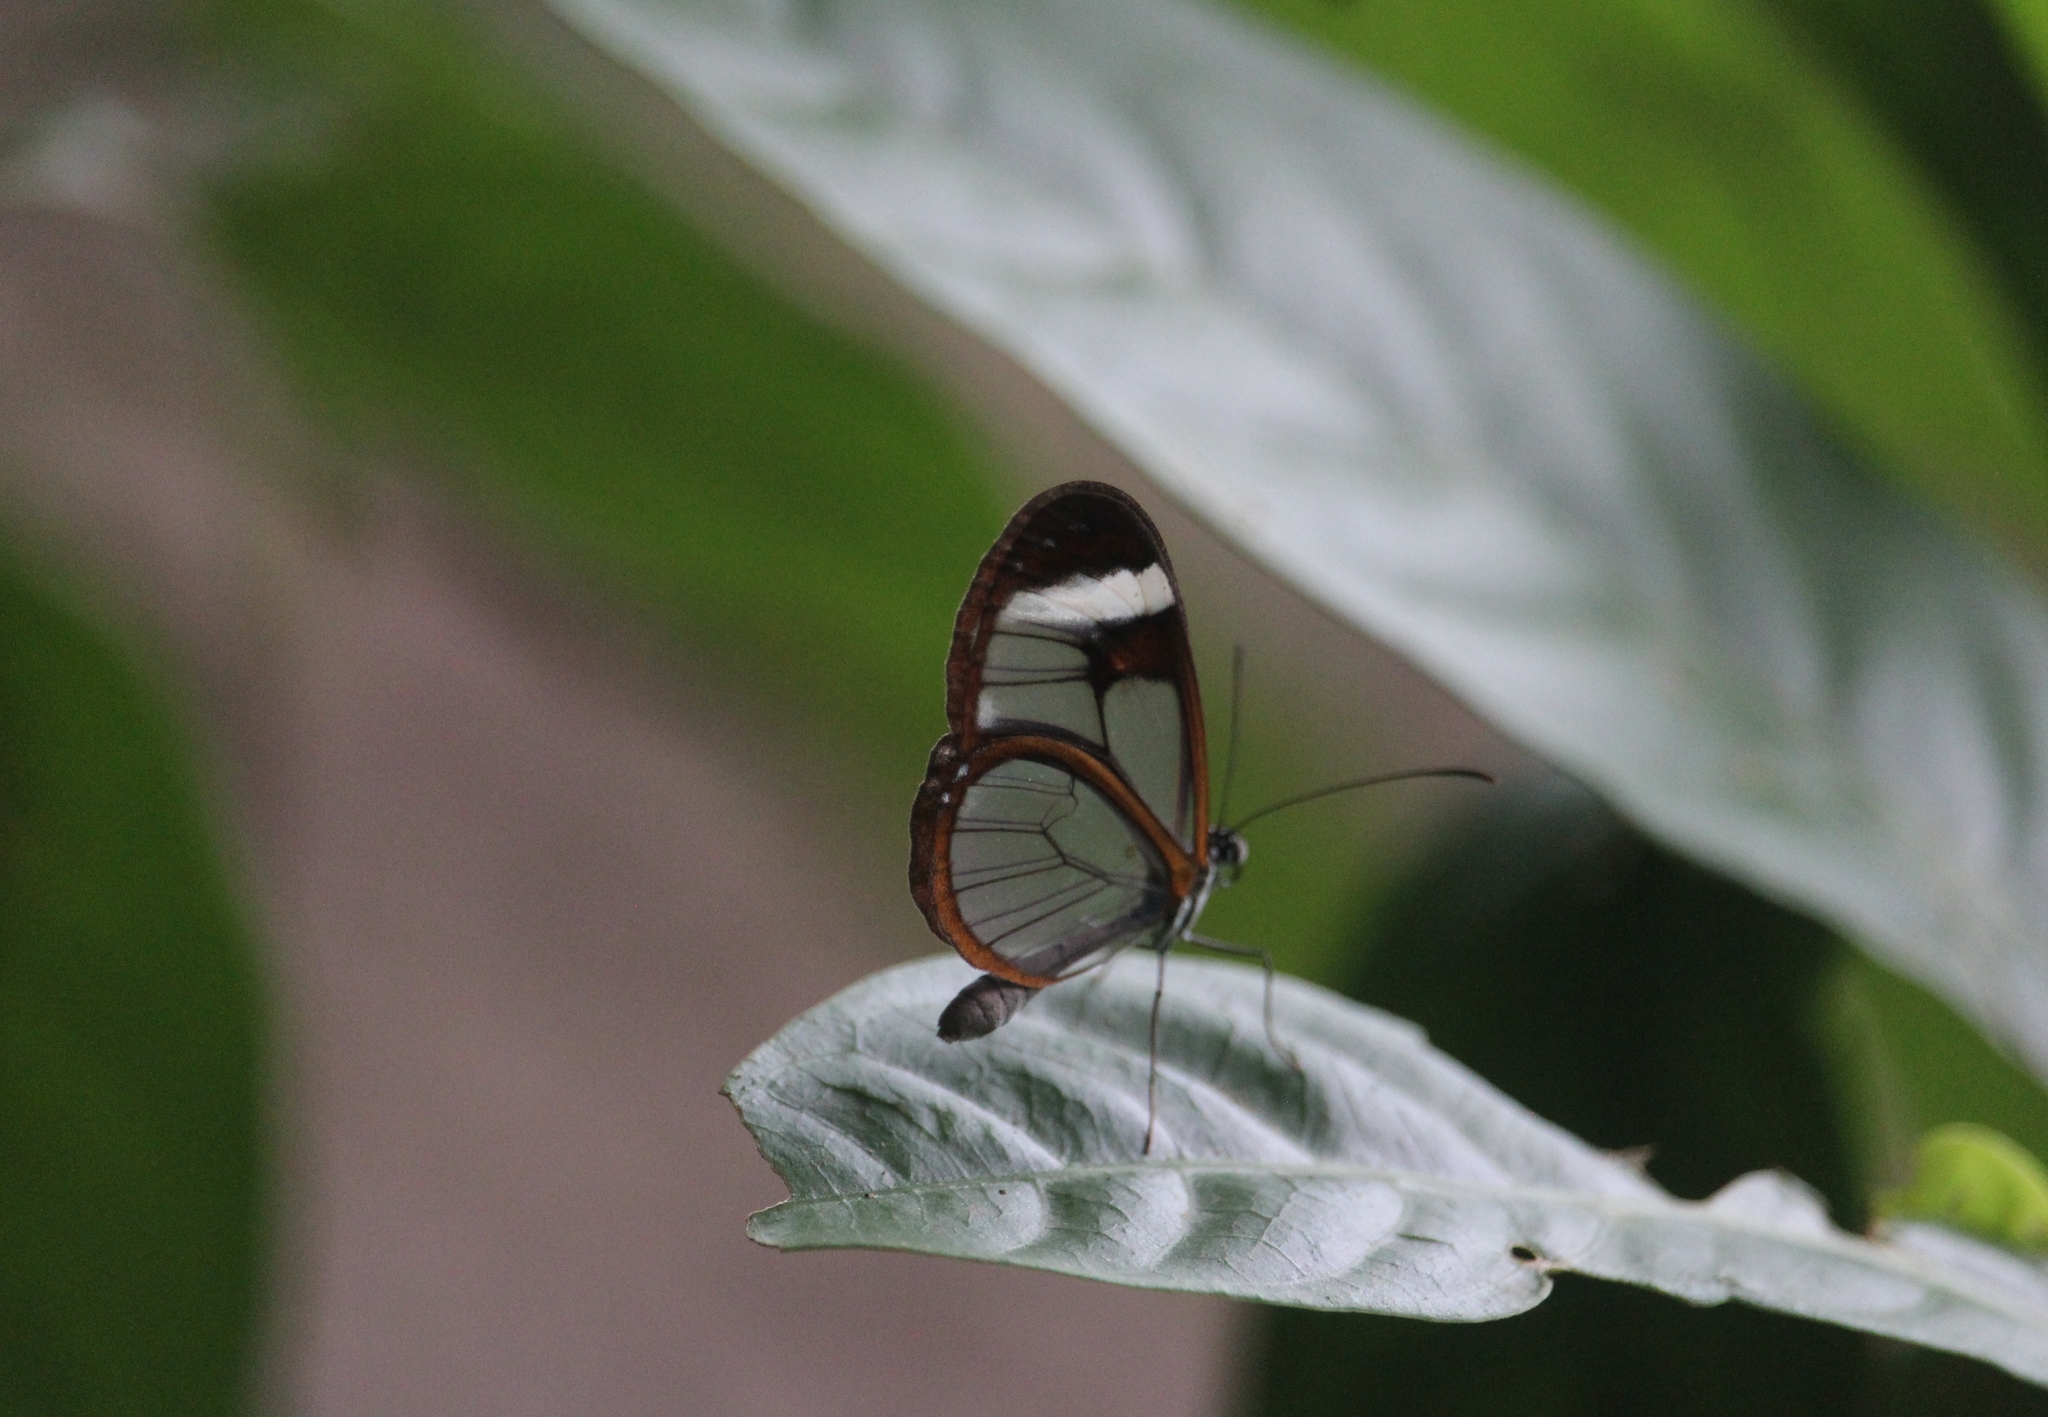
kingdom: Animalia
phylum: Arthropoda
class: Insecta
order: Lepidoptera
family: Nymphalidae
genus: Pteronymia
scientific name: Pteronymia cotytto
